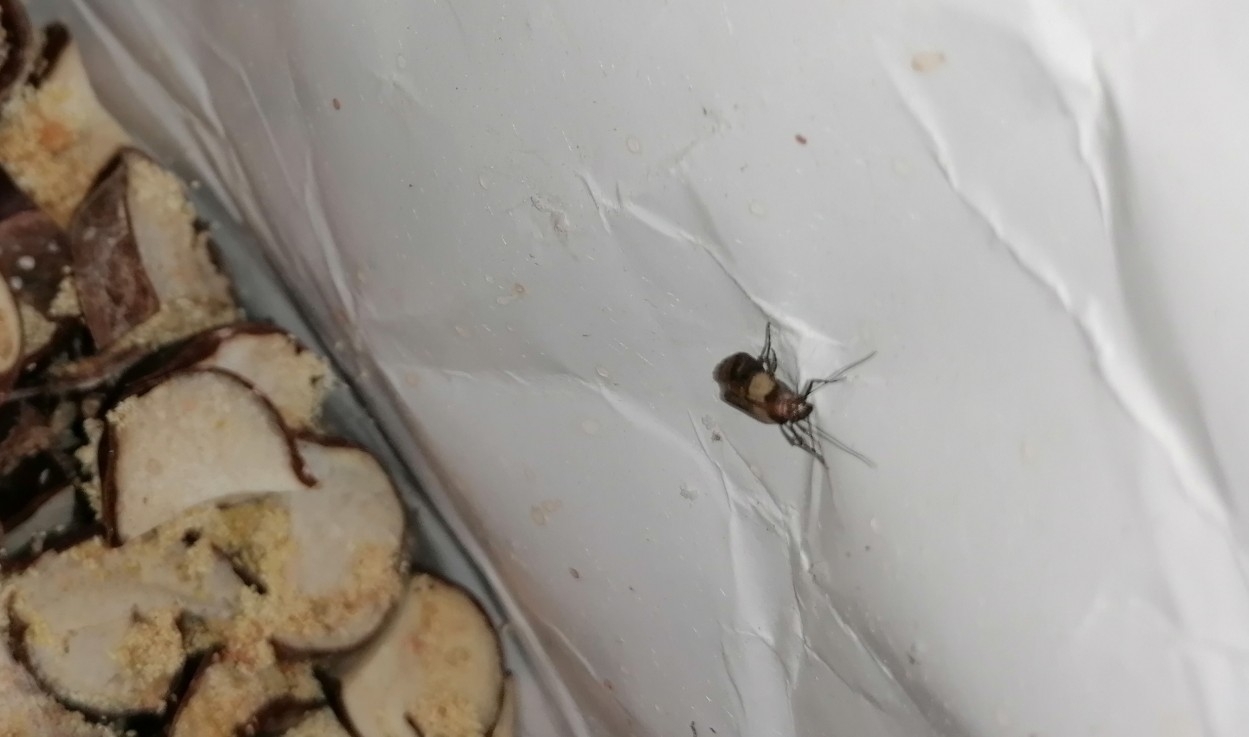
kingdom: Animalia
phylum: Arthropoda
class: Insecta
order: Lepidoptera
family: Pyralidae
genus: Plodia
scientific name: Plodia interpunctella
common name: Indian meal moth
